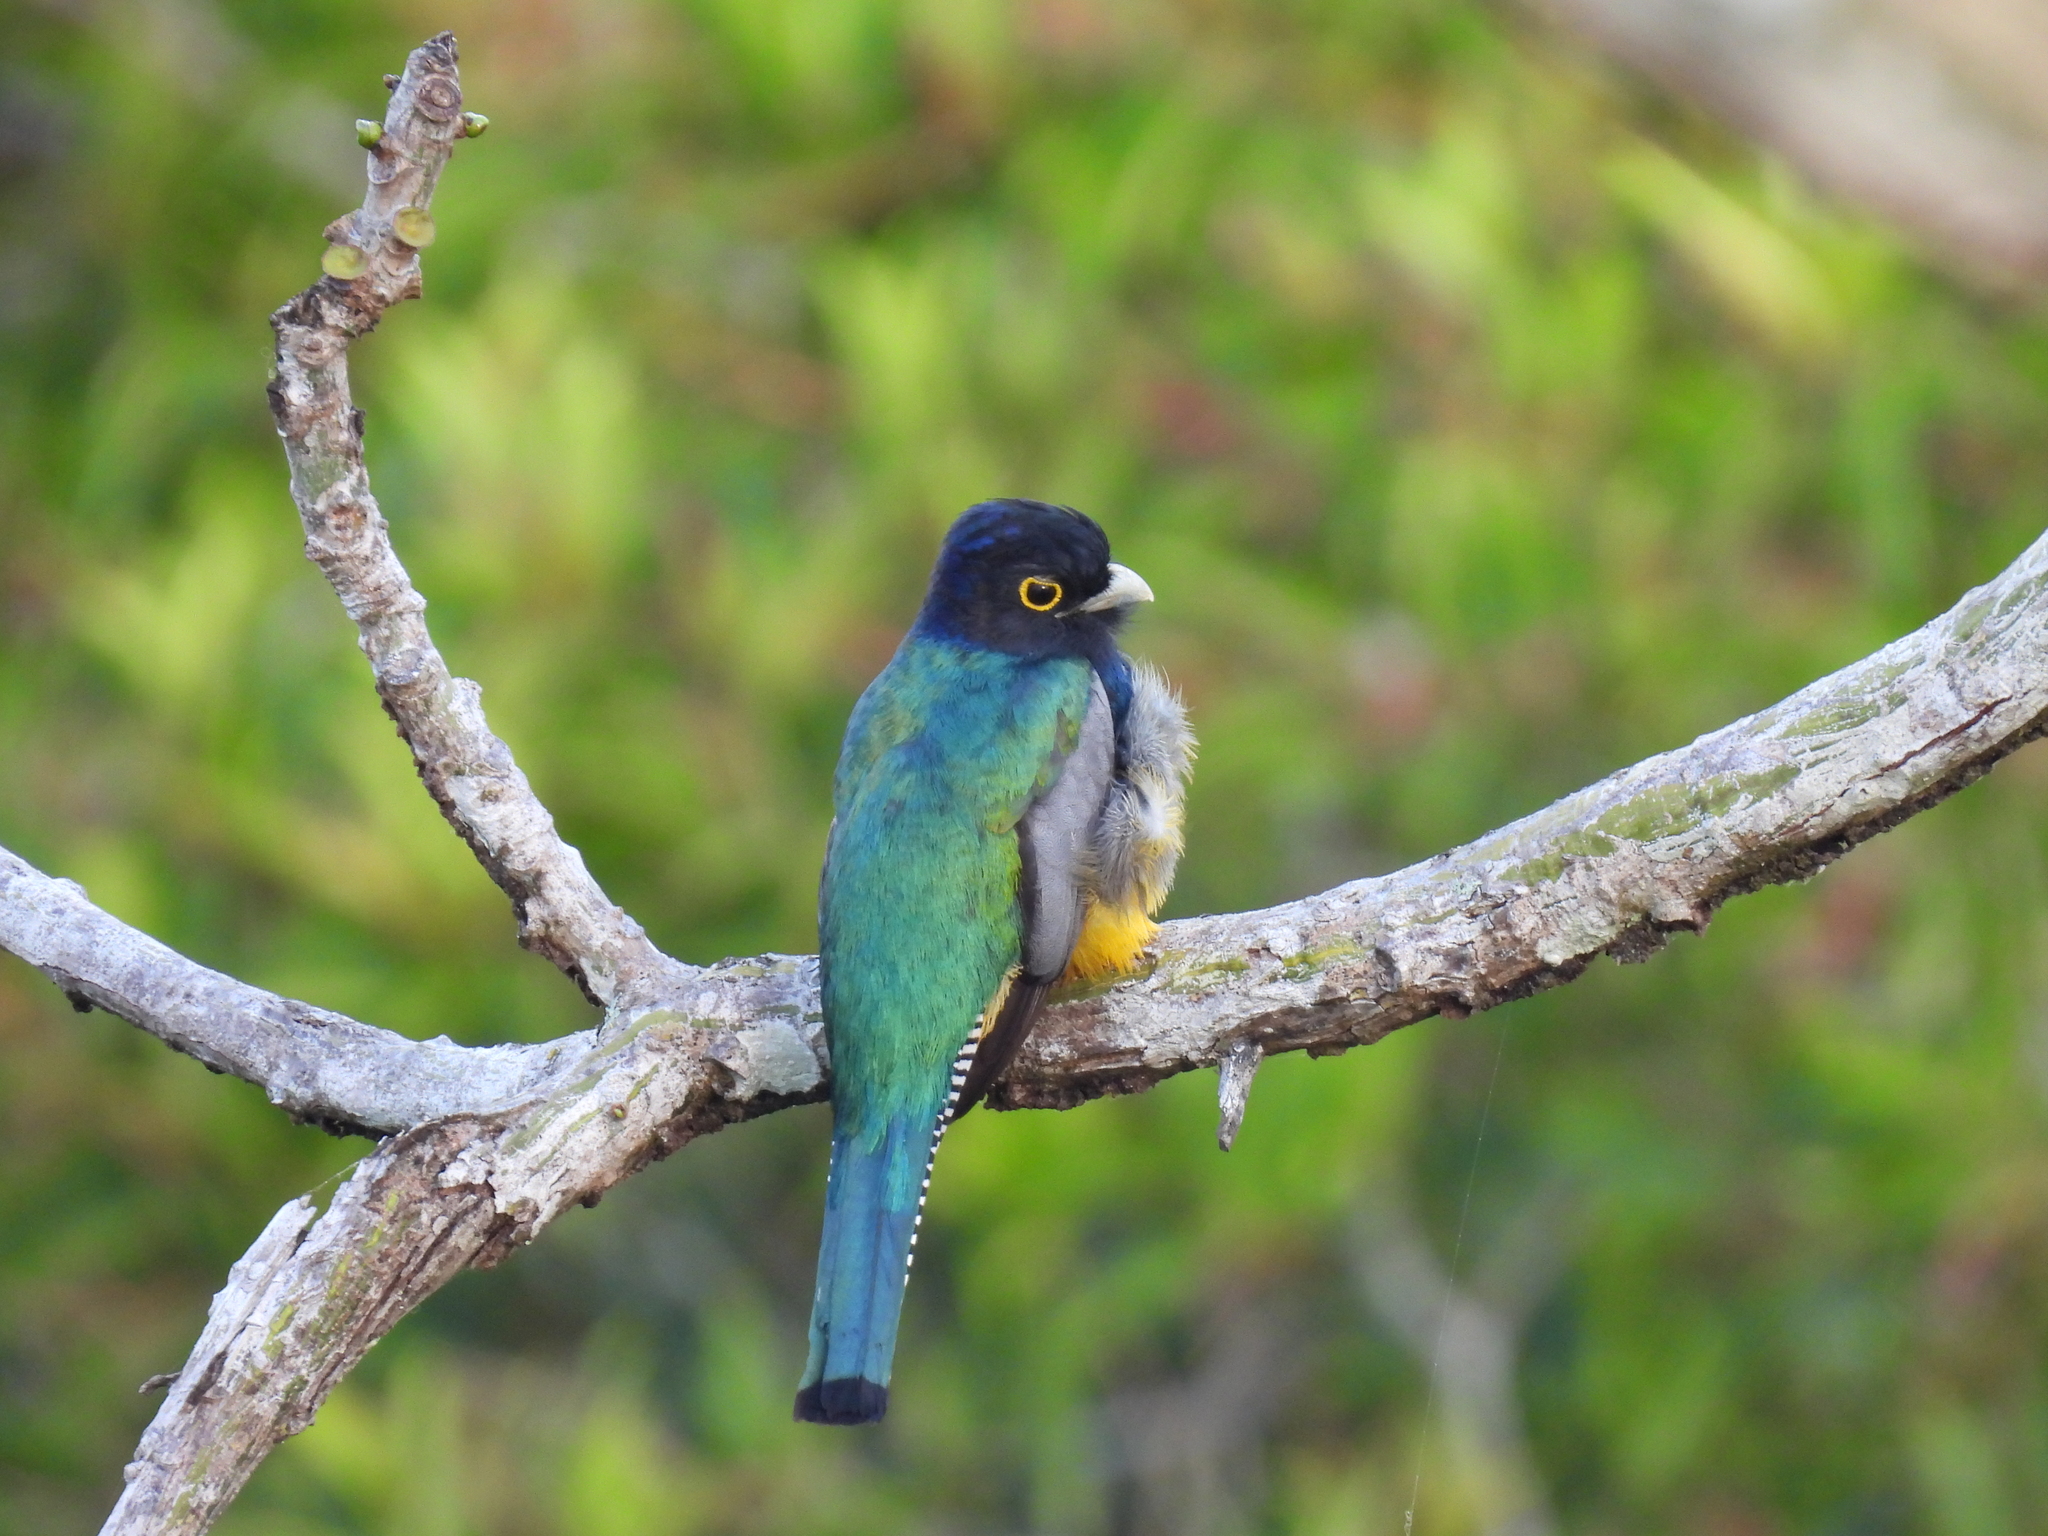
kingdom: Animalia
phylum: Chordata
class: Aves
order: Trogoniformes
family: Trogonidae
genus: Trogon
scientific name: Trogon caligatus
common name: Gartered trogon
